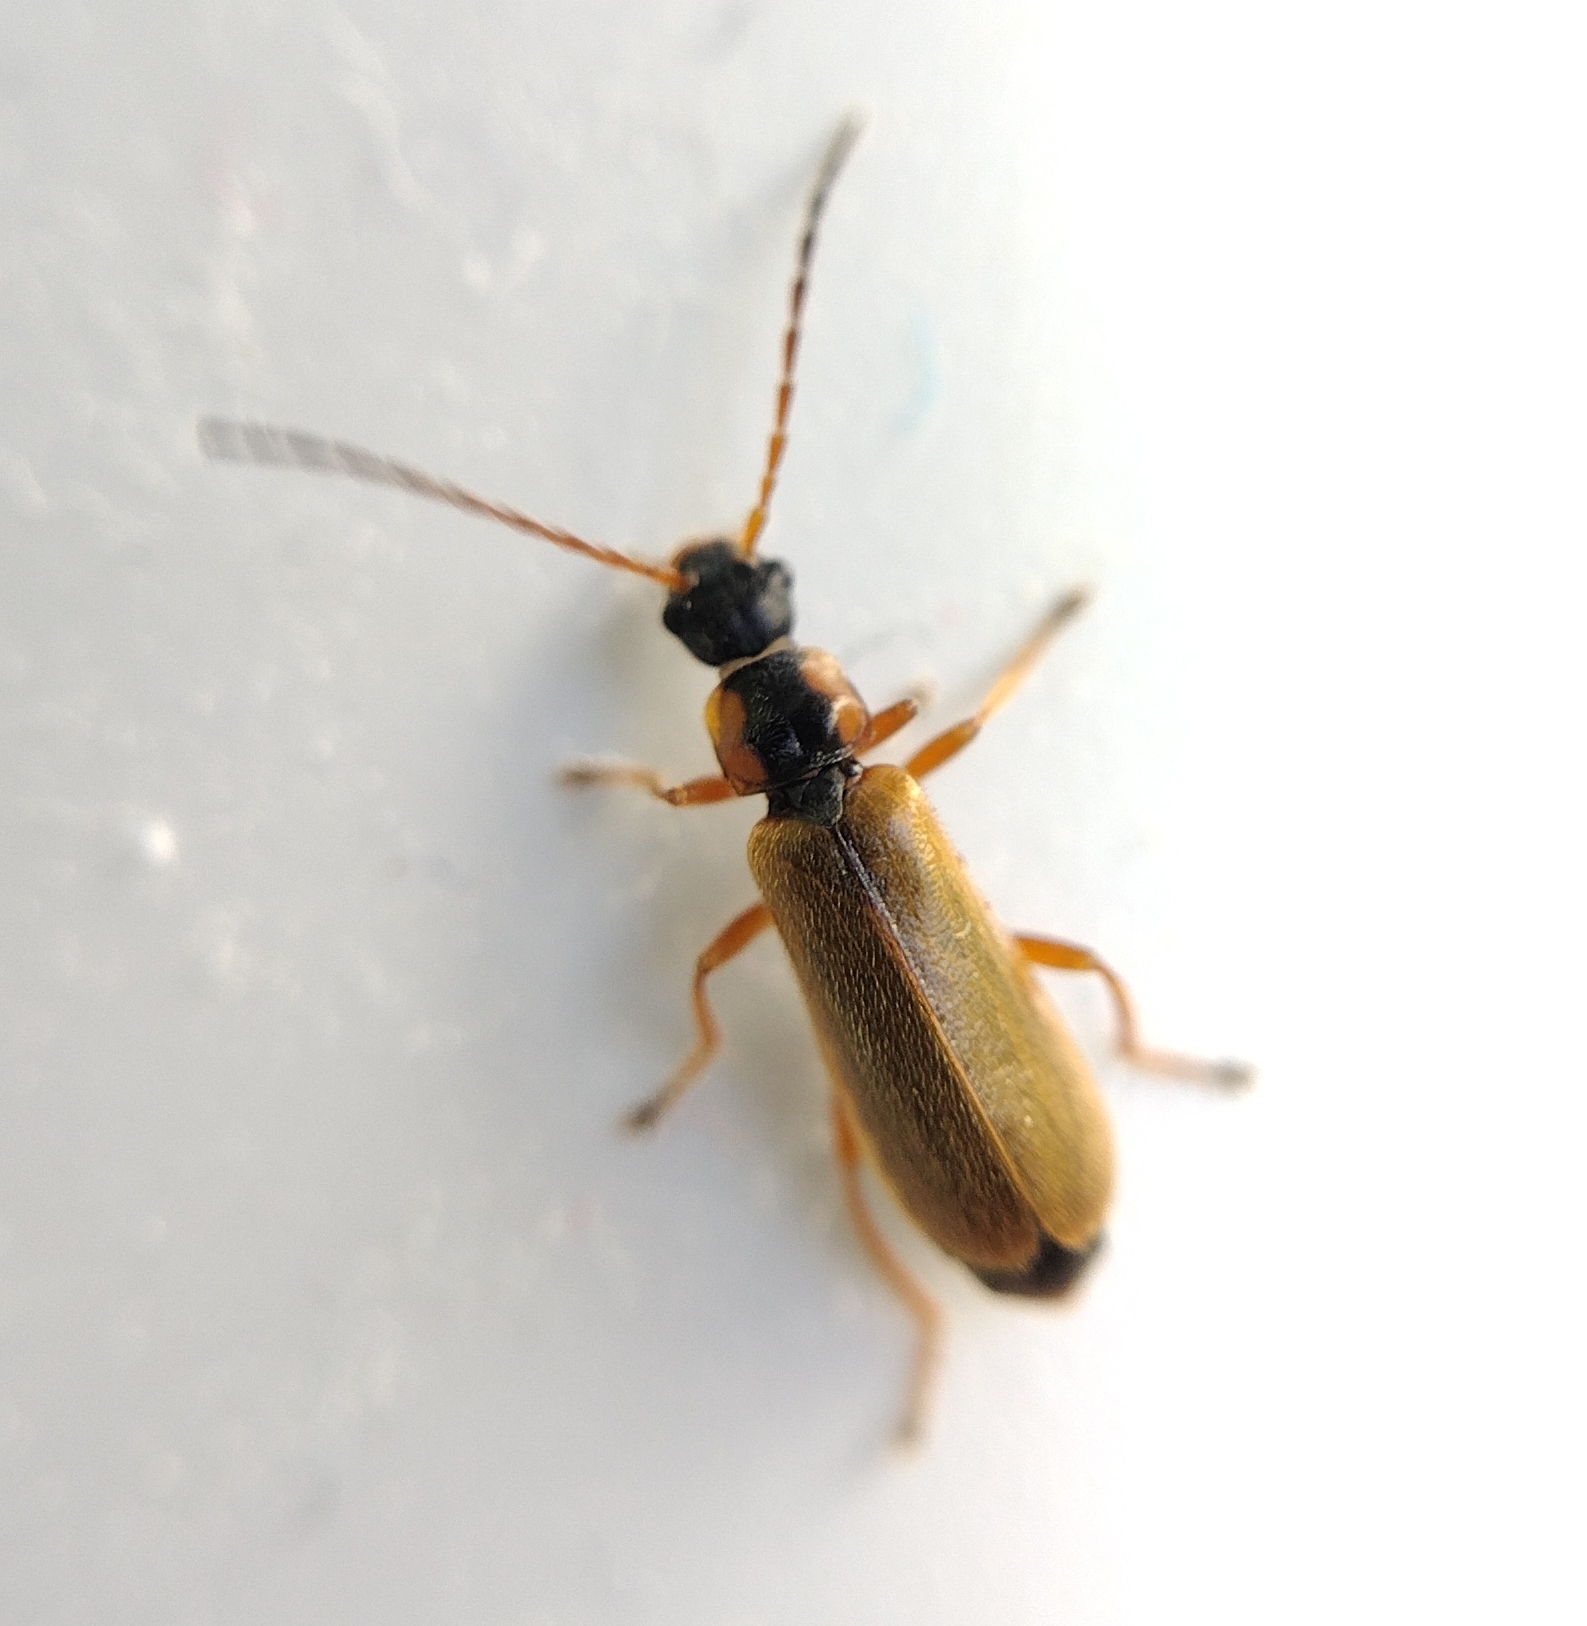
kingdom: Animalia
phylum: Arthropoda
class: Insecta
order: Coleoptera
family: Cantharidae
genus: Rhagonycha
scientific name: Rhagonycha testacea
